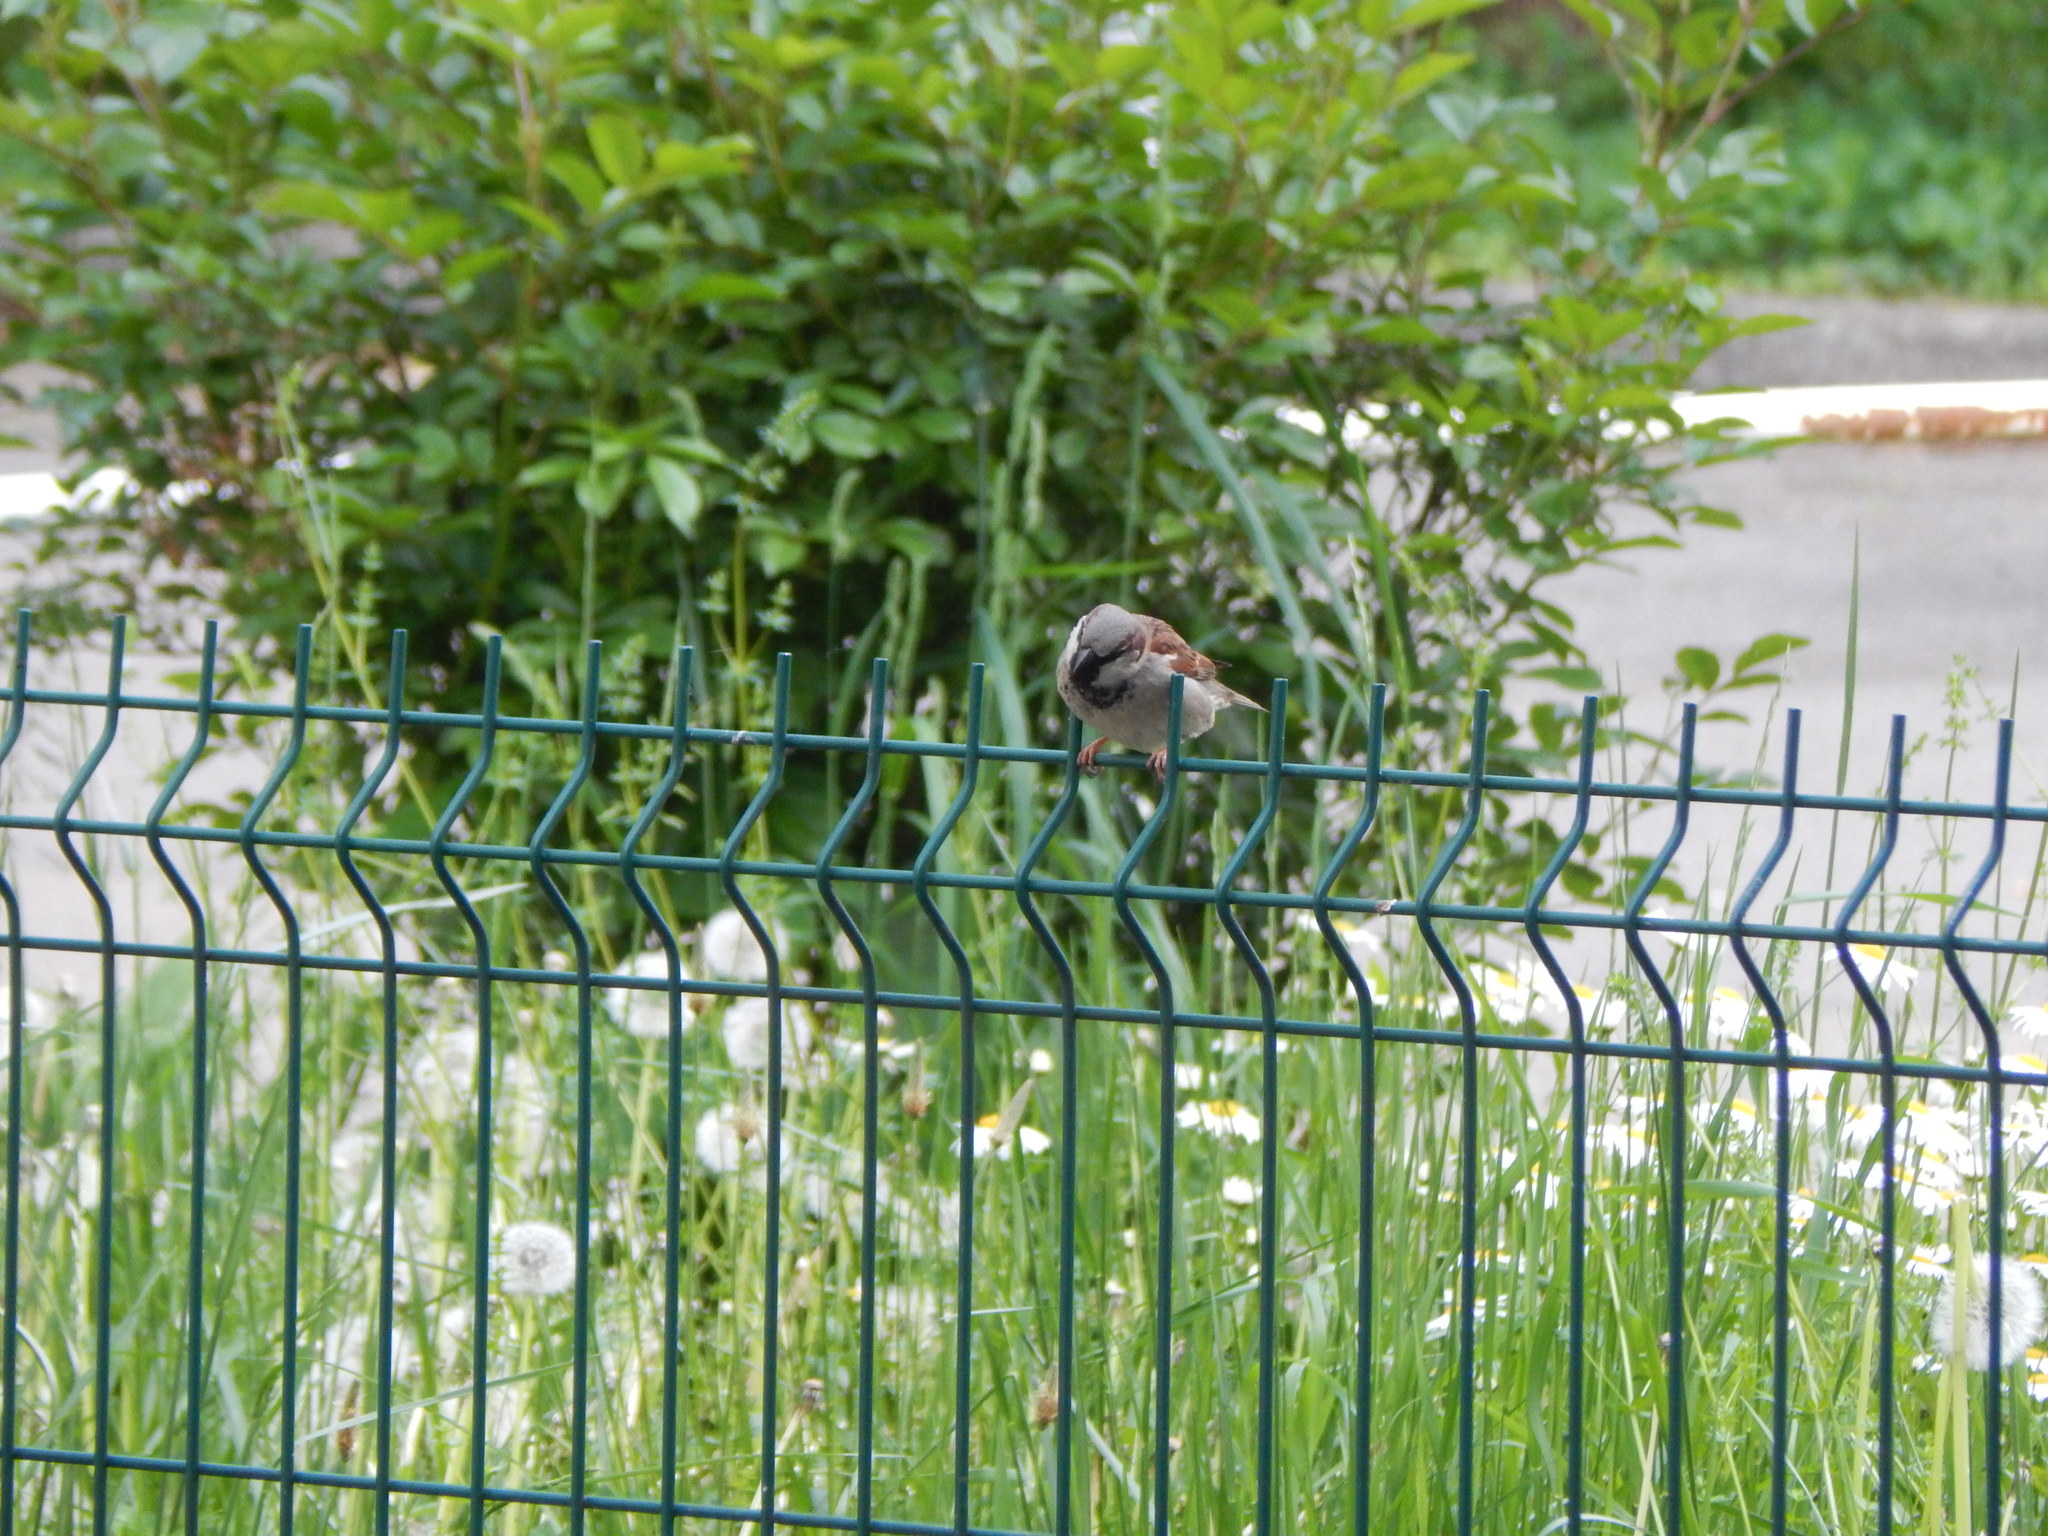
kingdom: Animalia
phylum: Chordata
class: Aves
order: Passeriformes
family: Passeridae
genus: Passer
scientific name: Passer domesticus
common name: House sparrow
